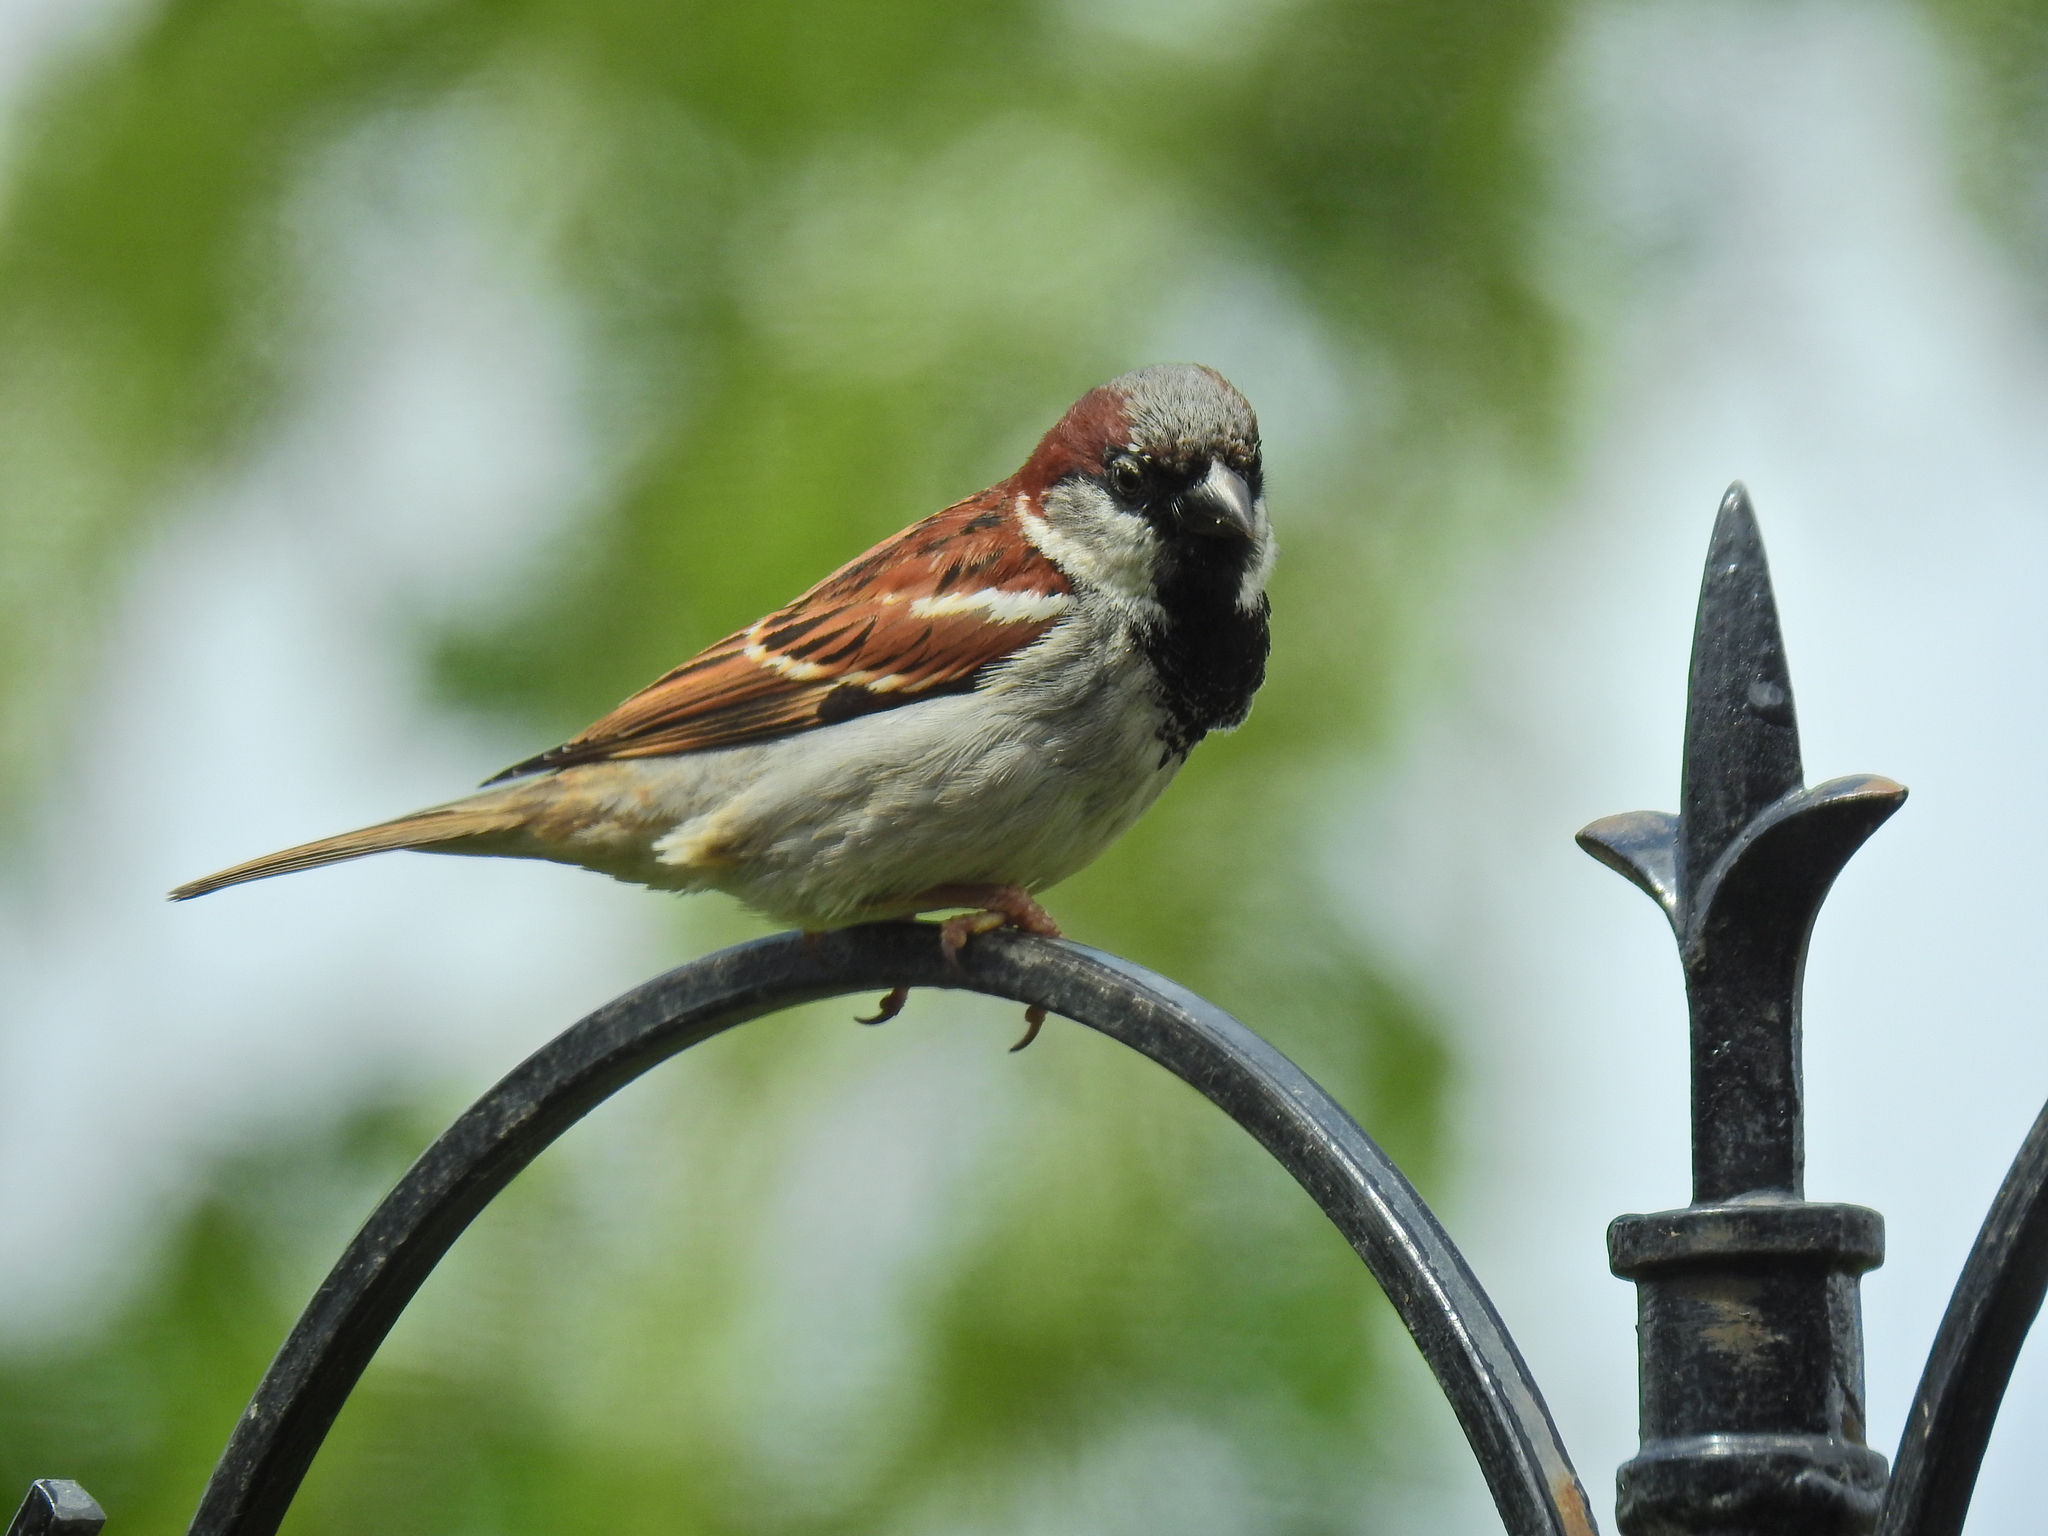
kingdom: Animalia
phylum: Chordata
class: Aves
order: Passeriformes
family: Passeridae
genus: Passer
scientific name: Passer domesticus
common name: House sparrow
